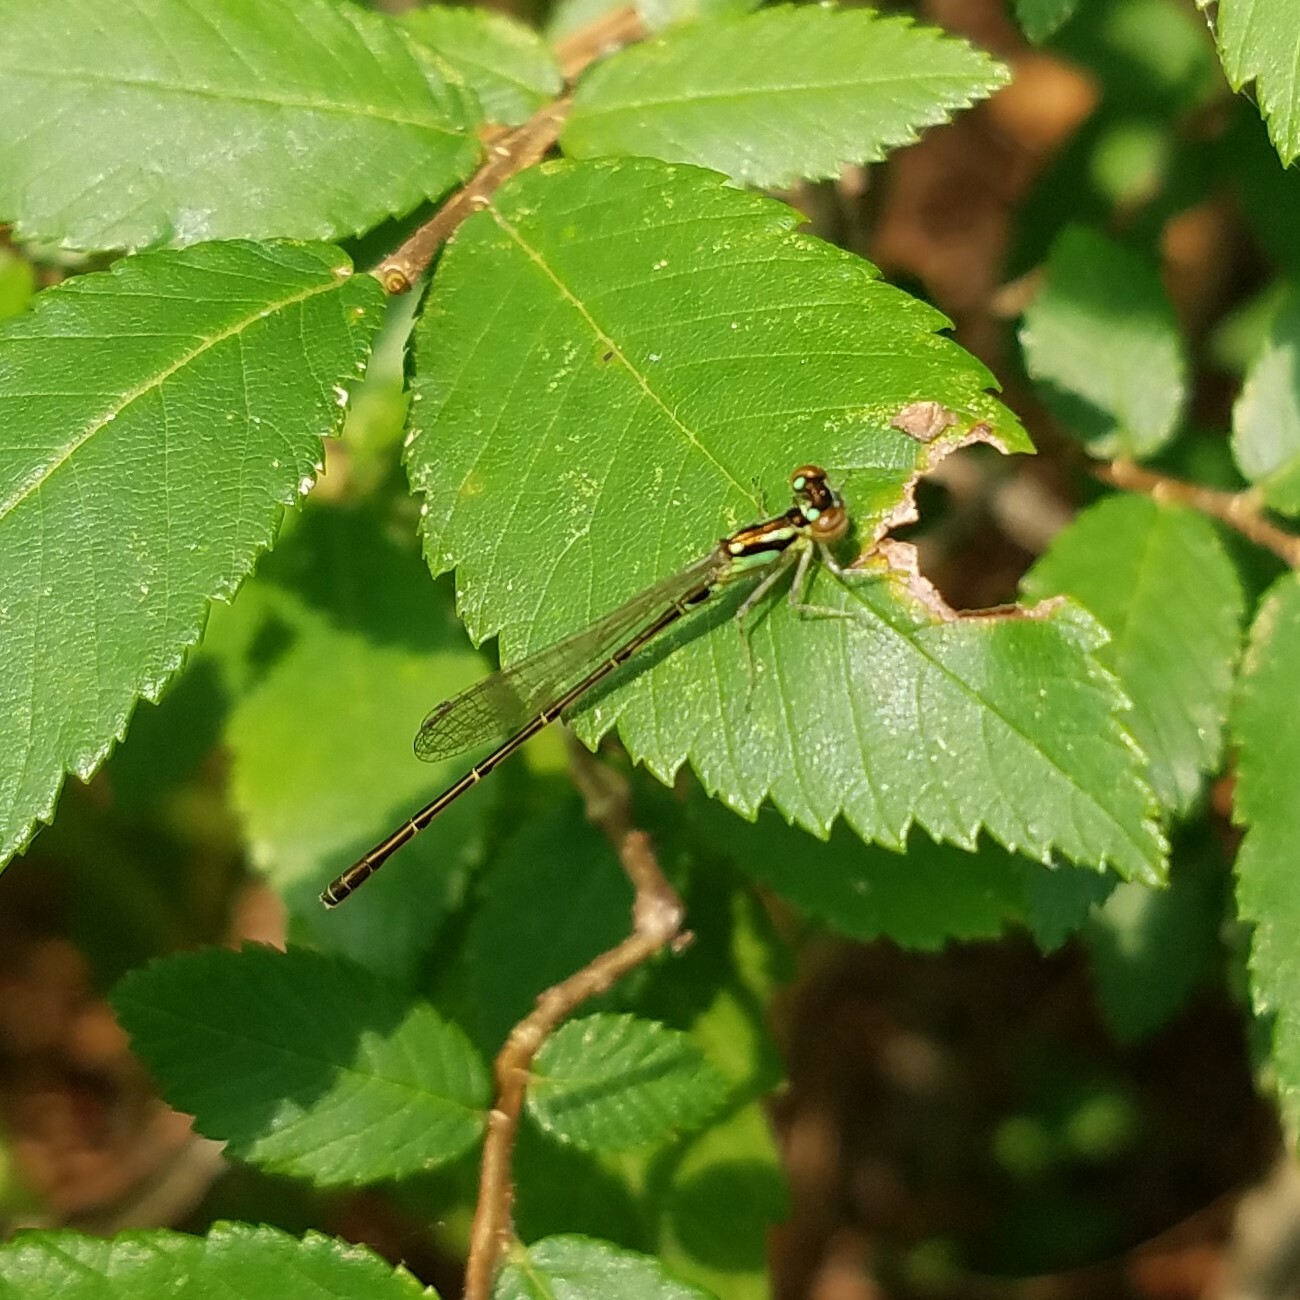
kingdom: Animalia
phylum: Arthropoda
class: Insecta
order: Odonata
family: Coenagrionidae
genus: Ischnura
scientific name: Ischnura posita
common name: Fragile forktail
